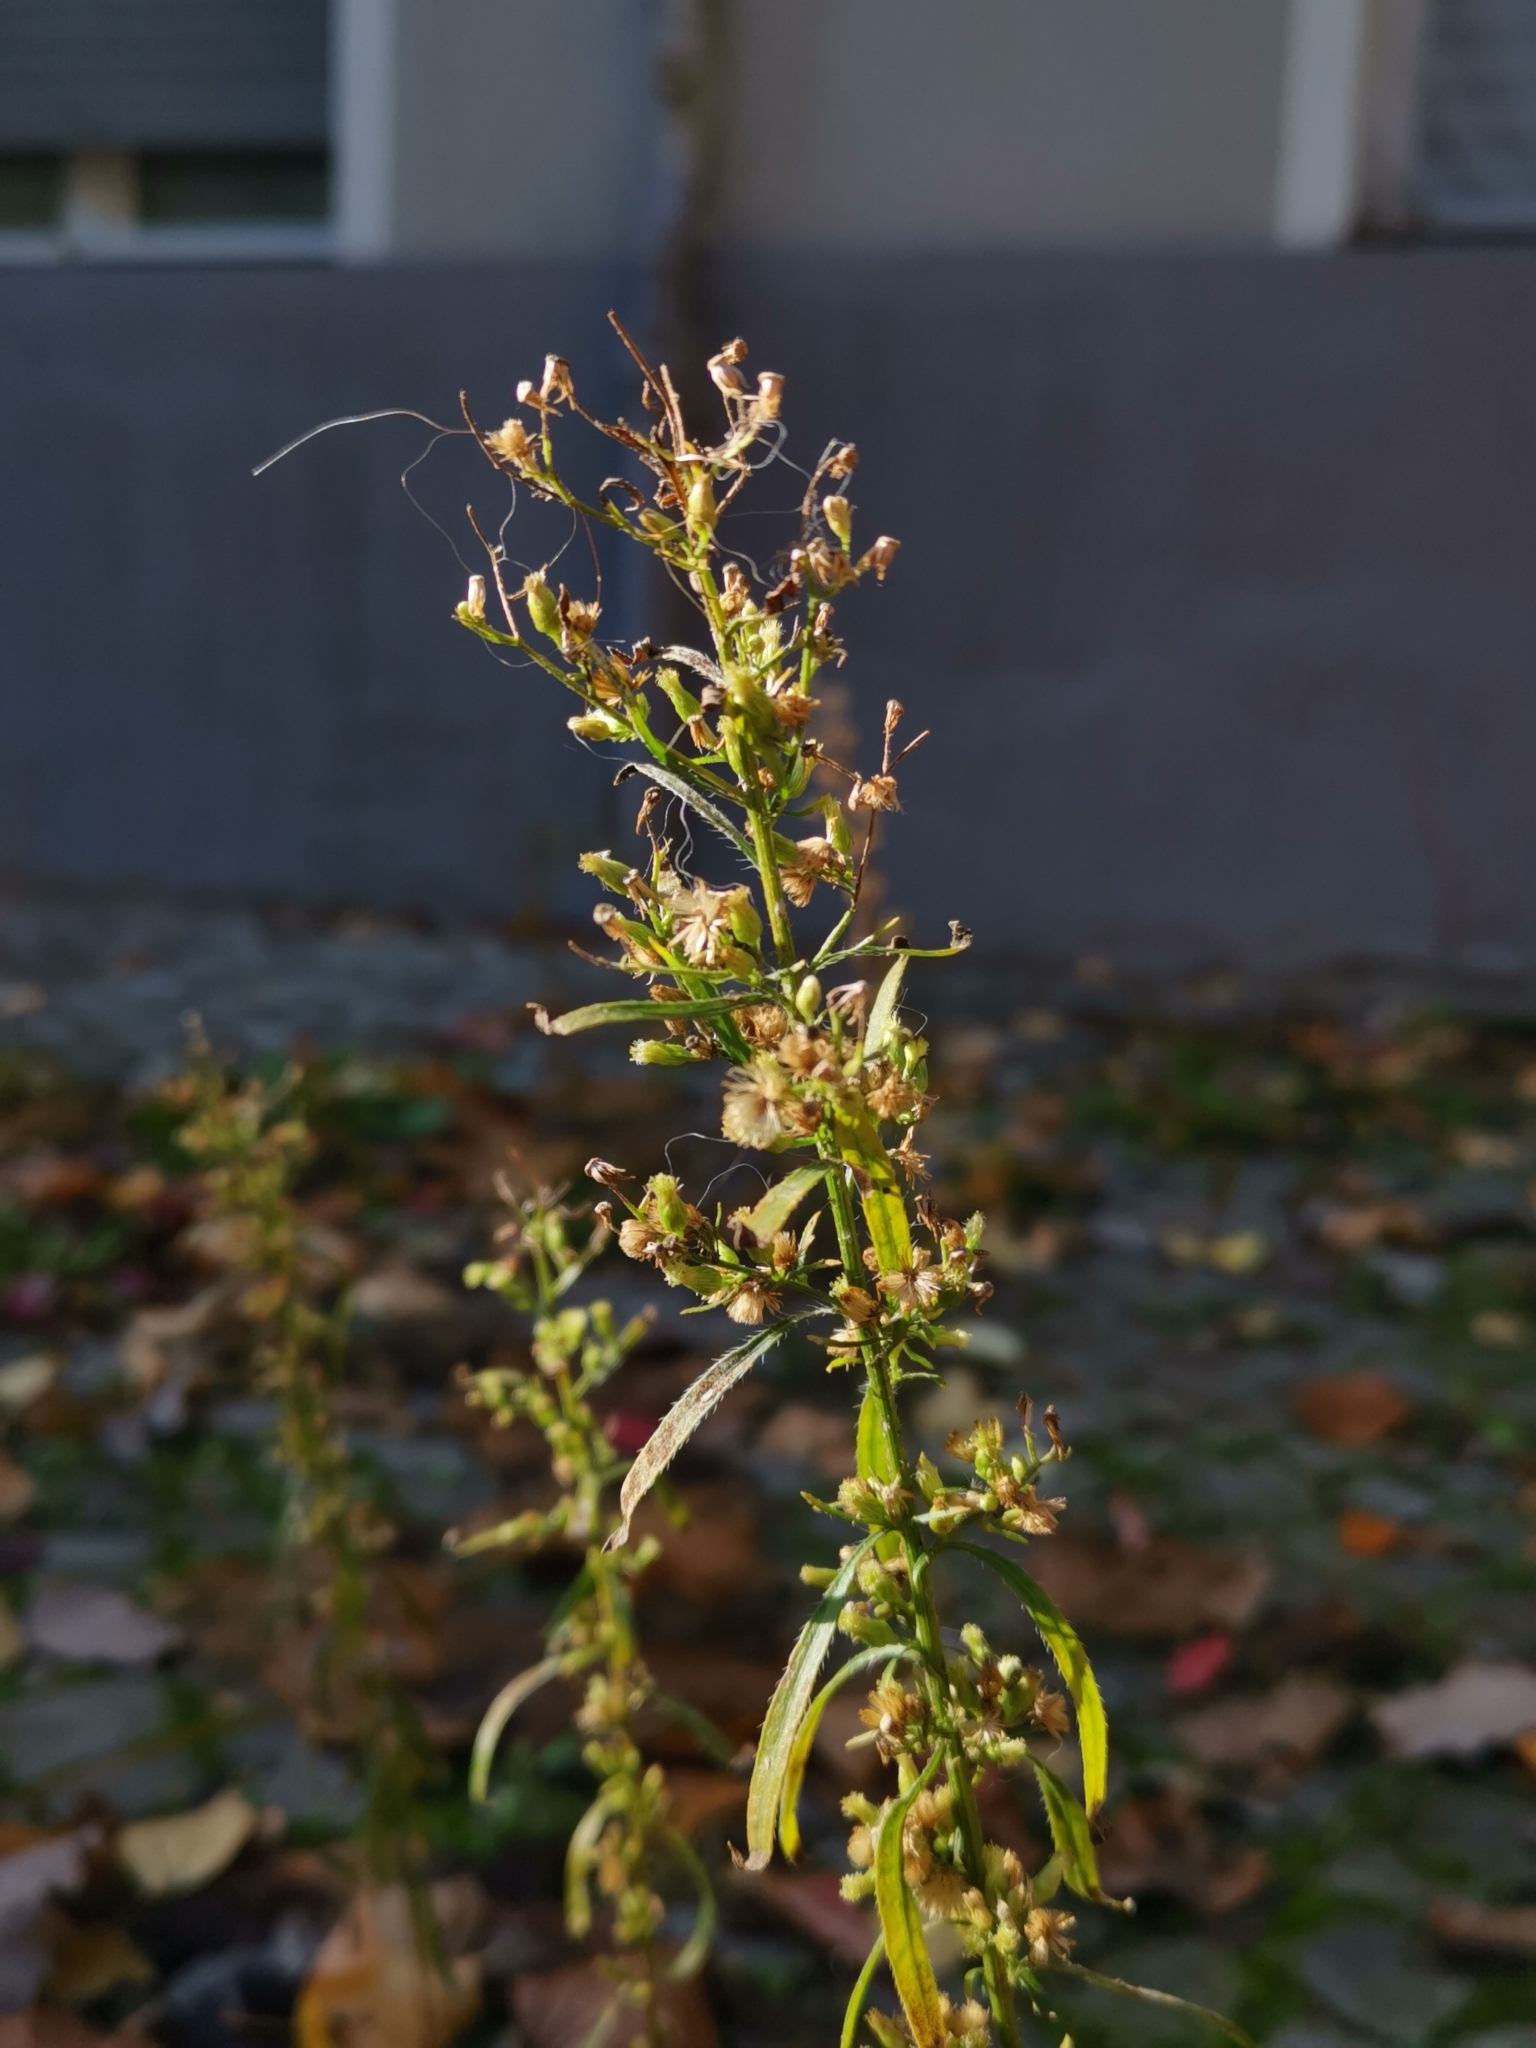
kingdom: Plantae
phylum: Tracheophyta
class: Magnoliopsida
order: Asterales
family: Asteraceae
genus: Erigeron
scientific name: Erigeron canadensis
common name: Canadian fleabane
